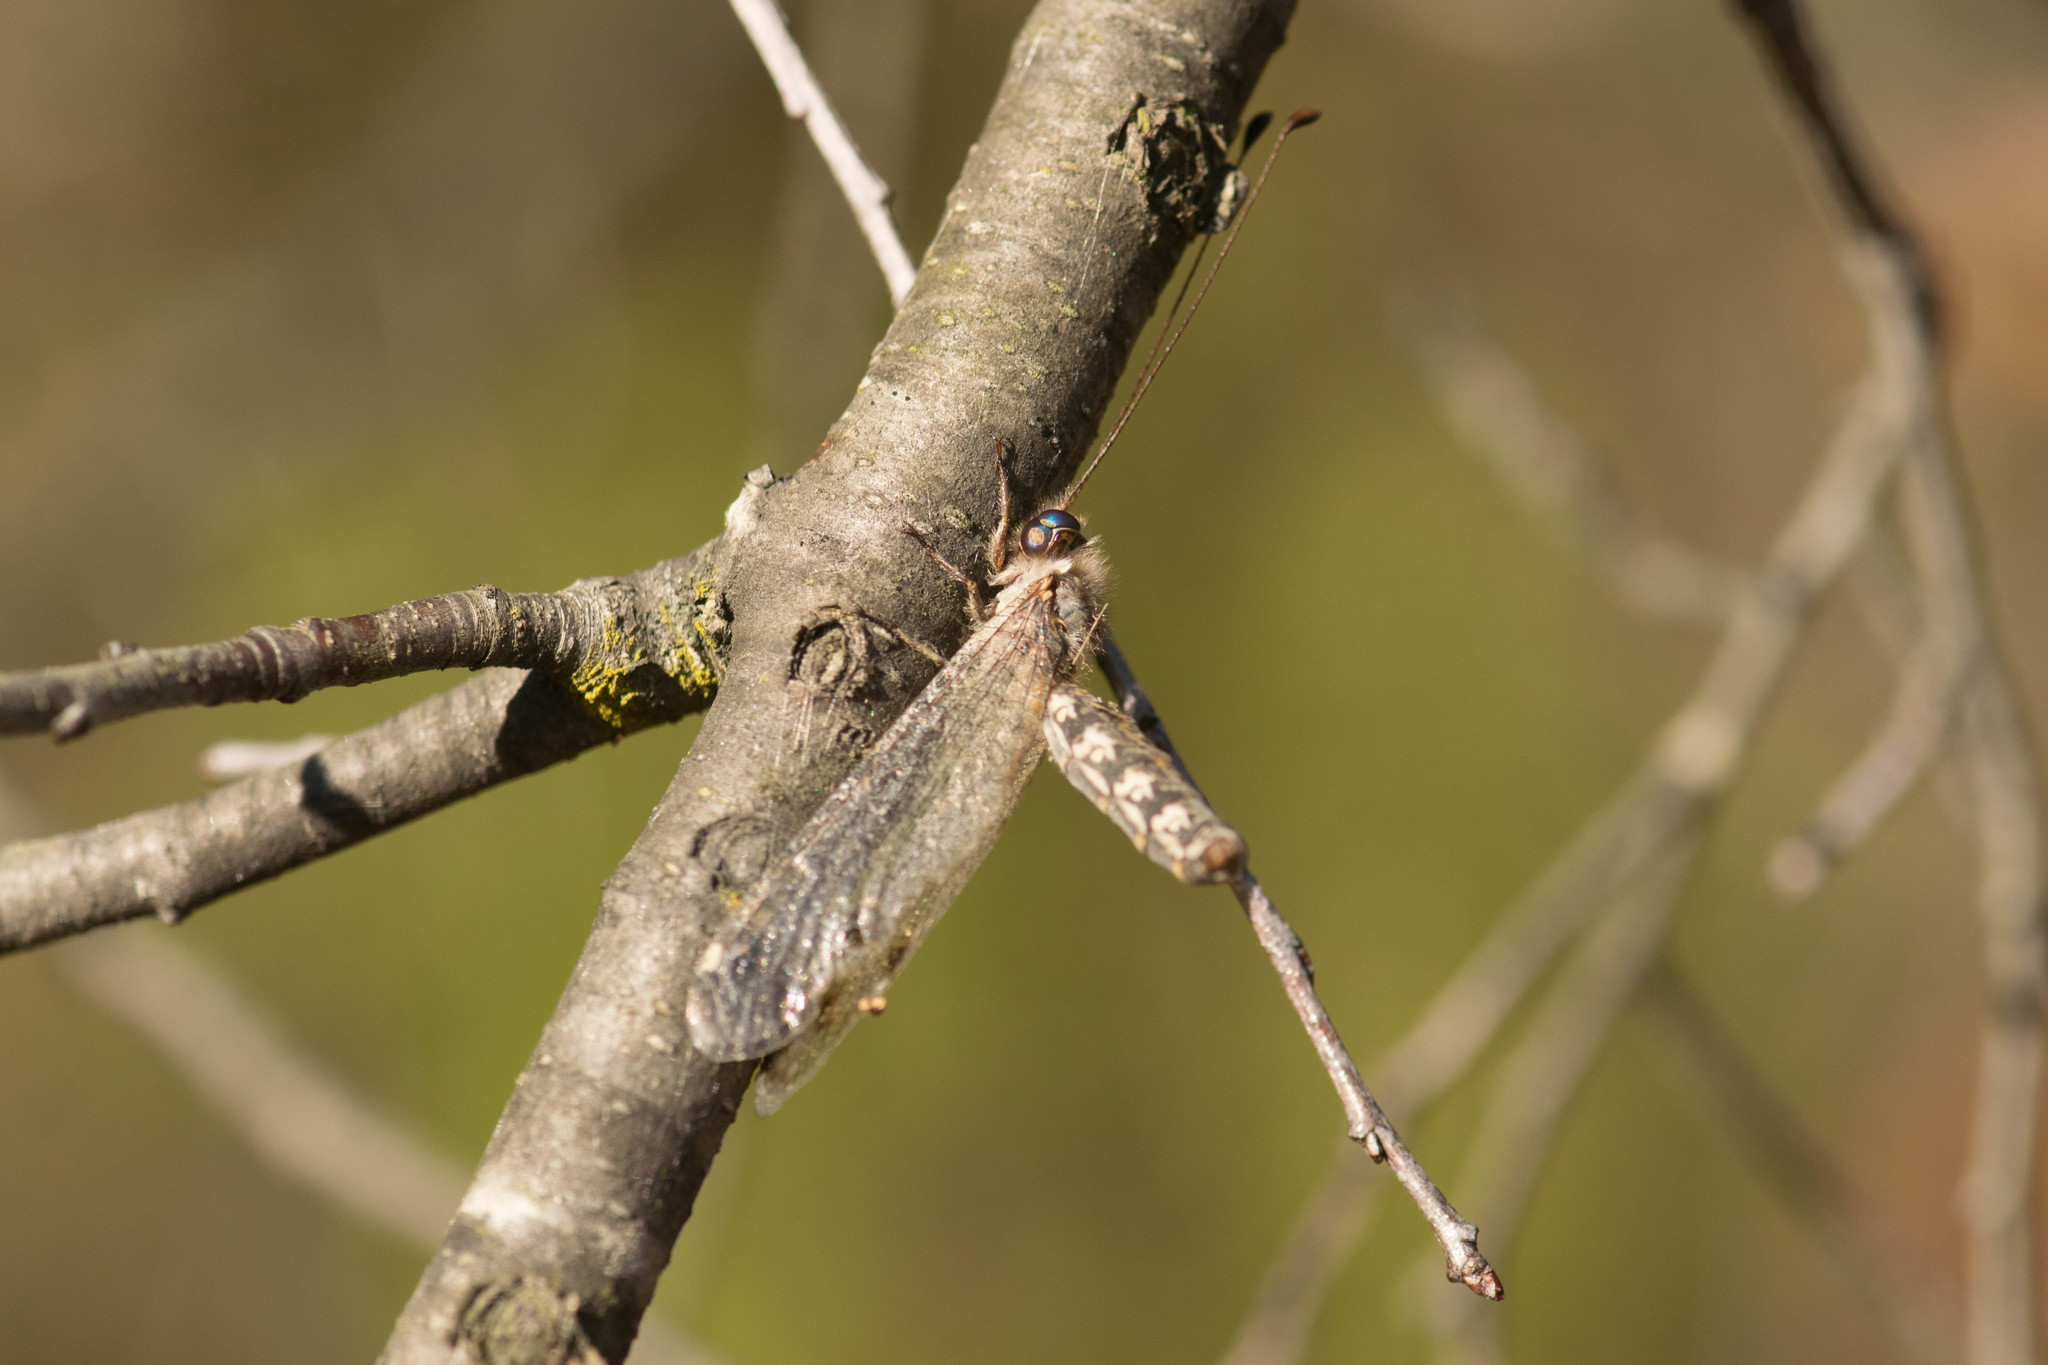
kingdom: Animalia
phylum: Arthropoda
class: Insecta
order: Neuroptera
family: Ascalaphidae
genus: Ululodes
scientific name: Ululodes quadripunctatus
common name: Four-spotted owlfly
